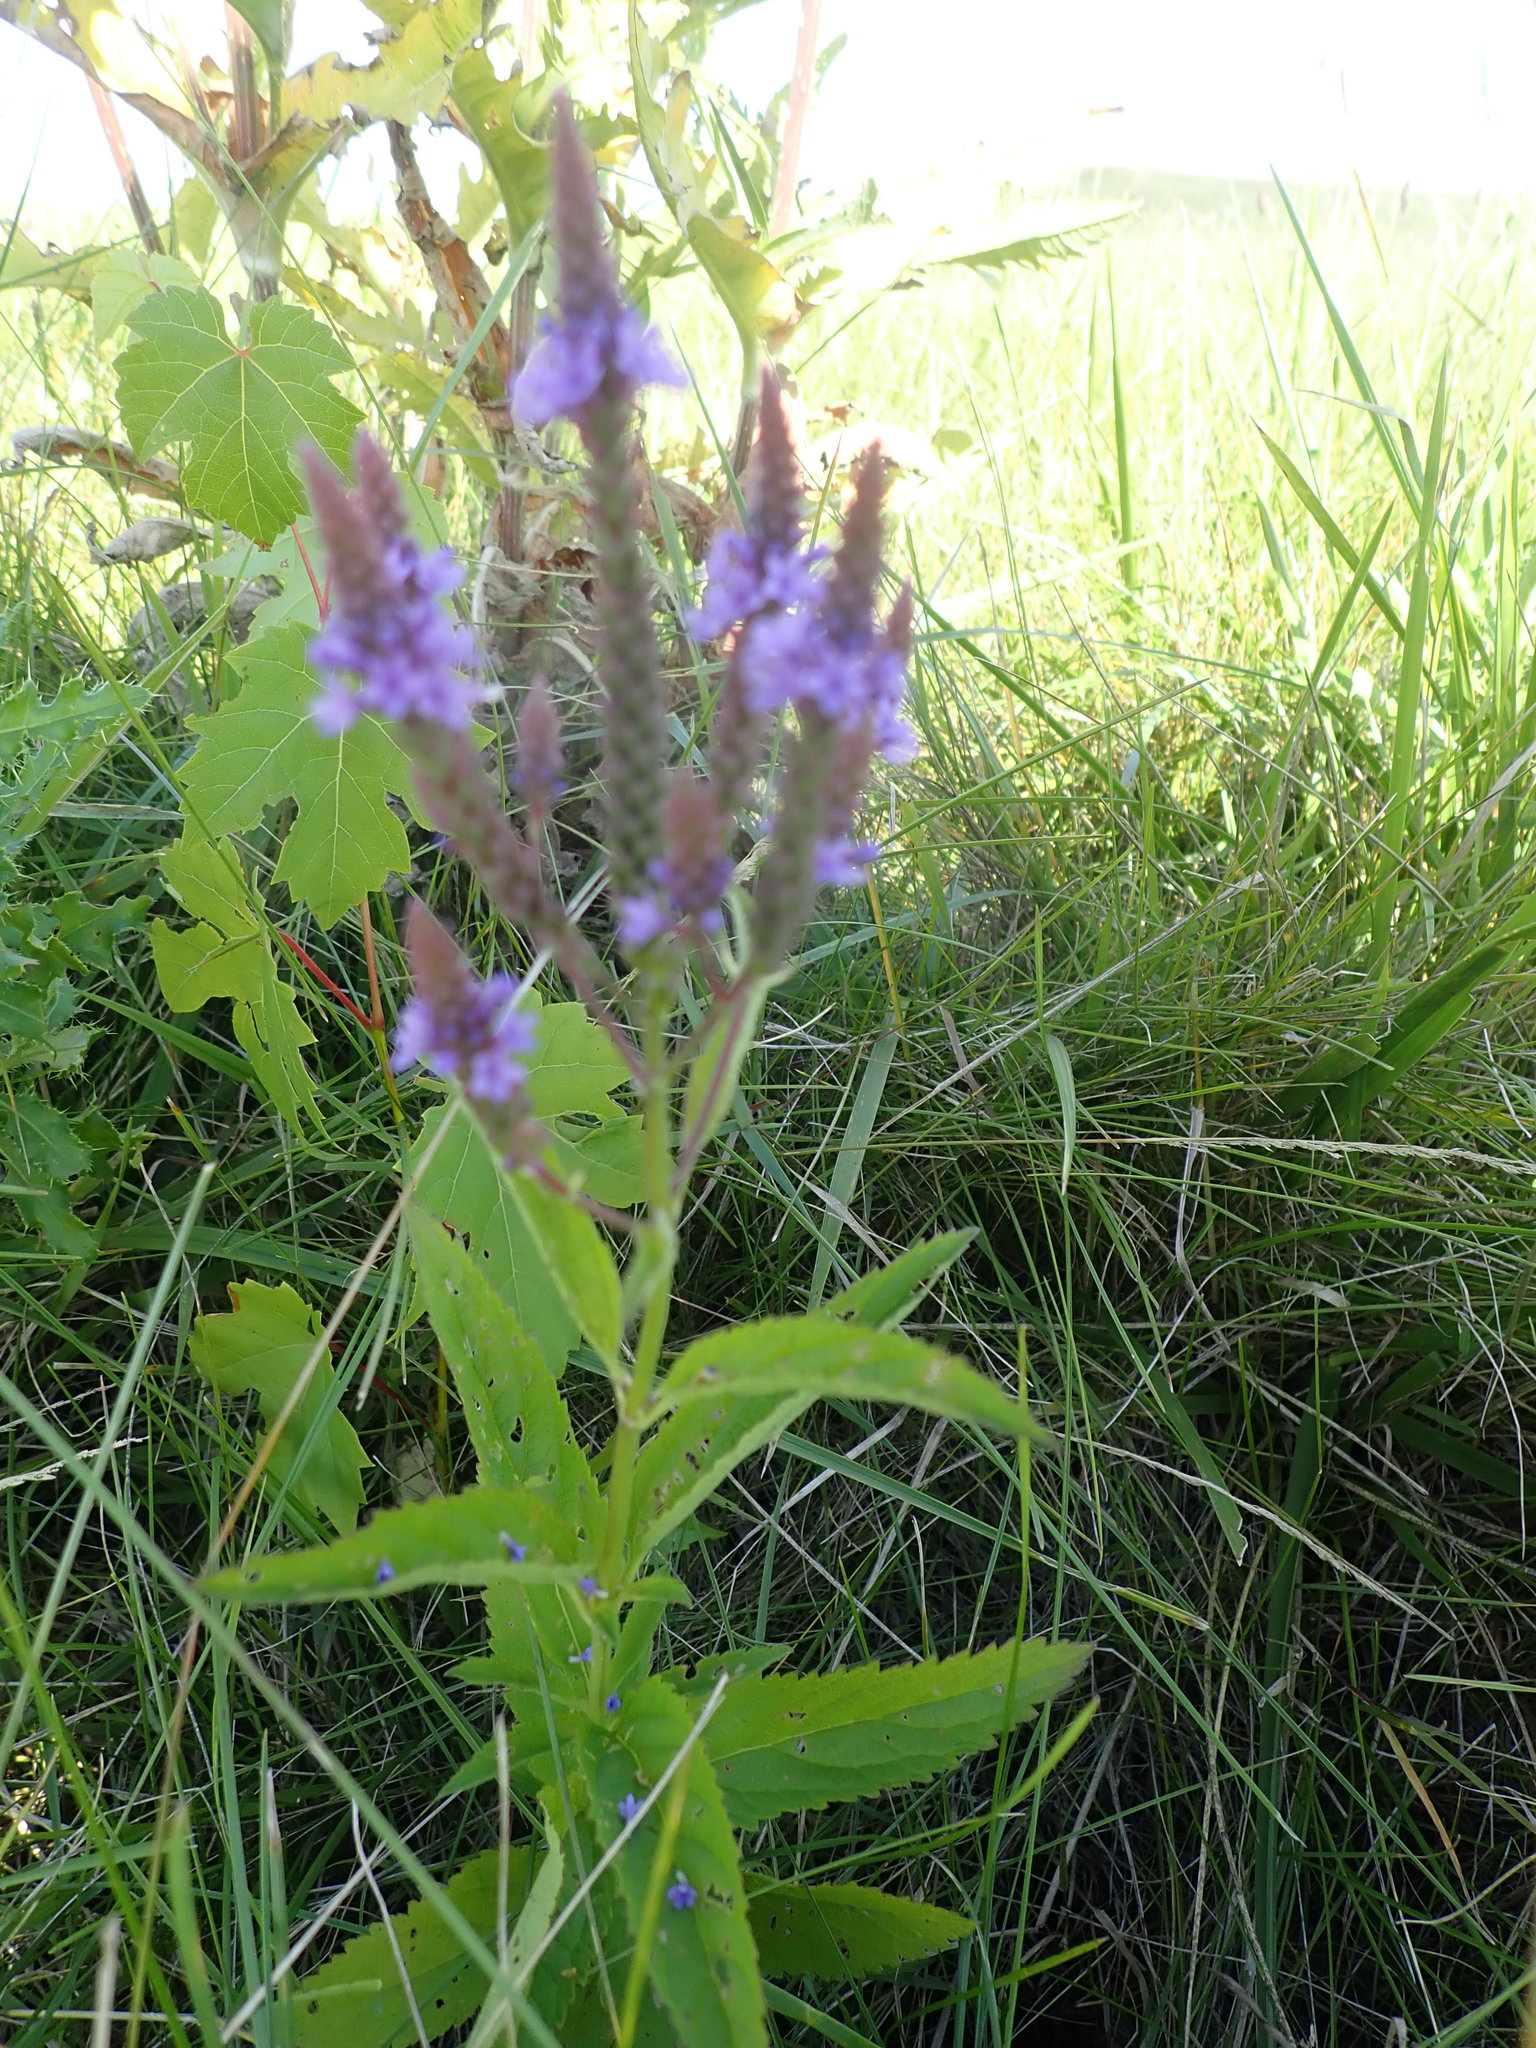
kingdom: Plantae
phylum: Tracheophyta
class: Magnoliopsida
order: Lamiales
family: Verbenaceae
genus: Verbena
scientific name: Verbena hastata
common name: American blue vervain
